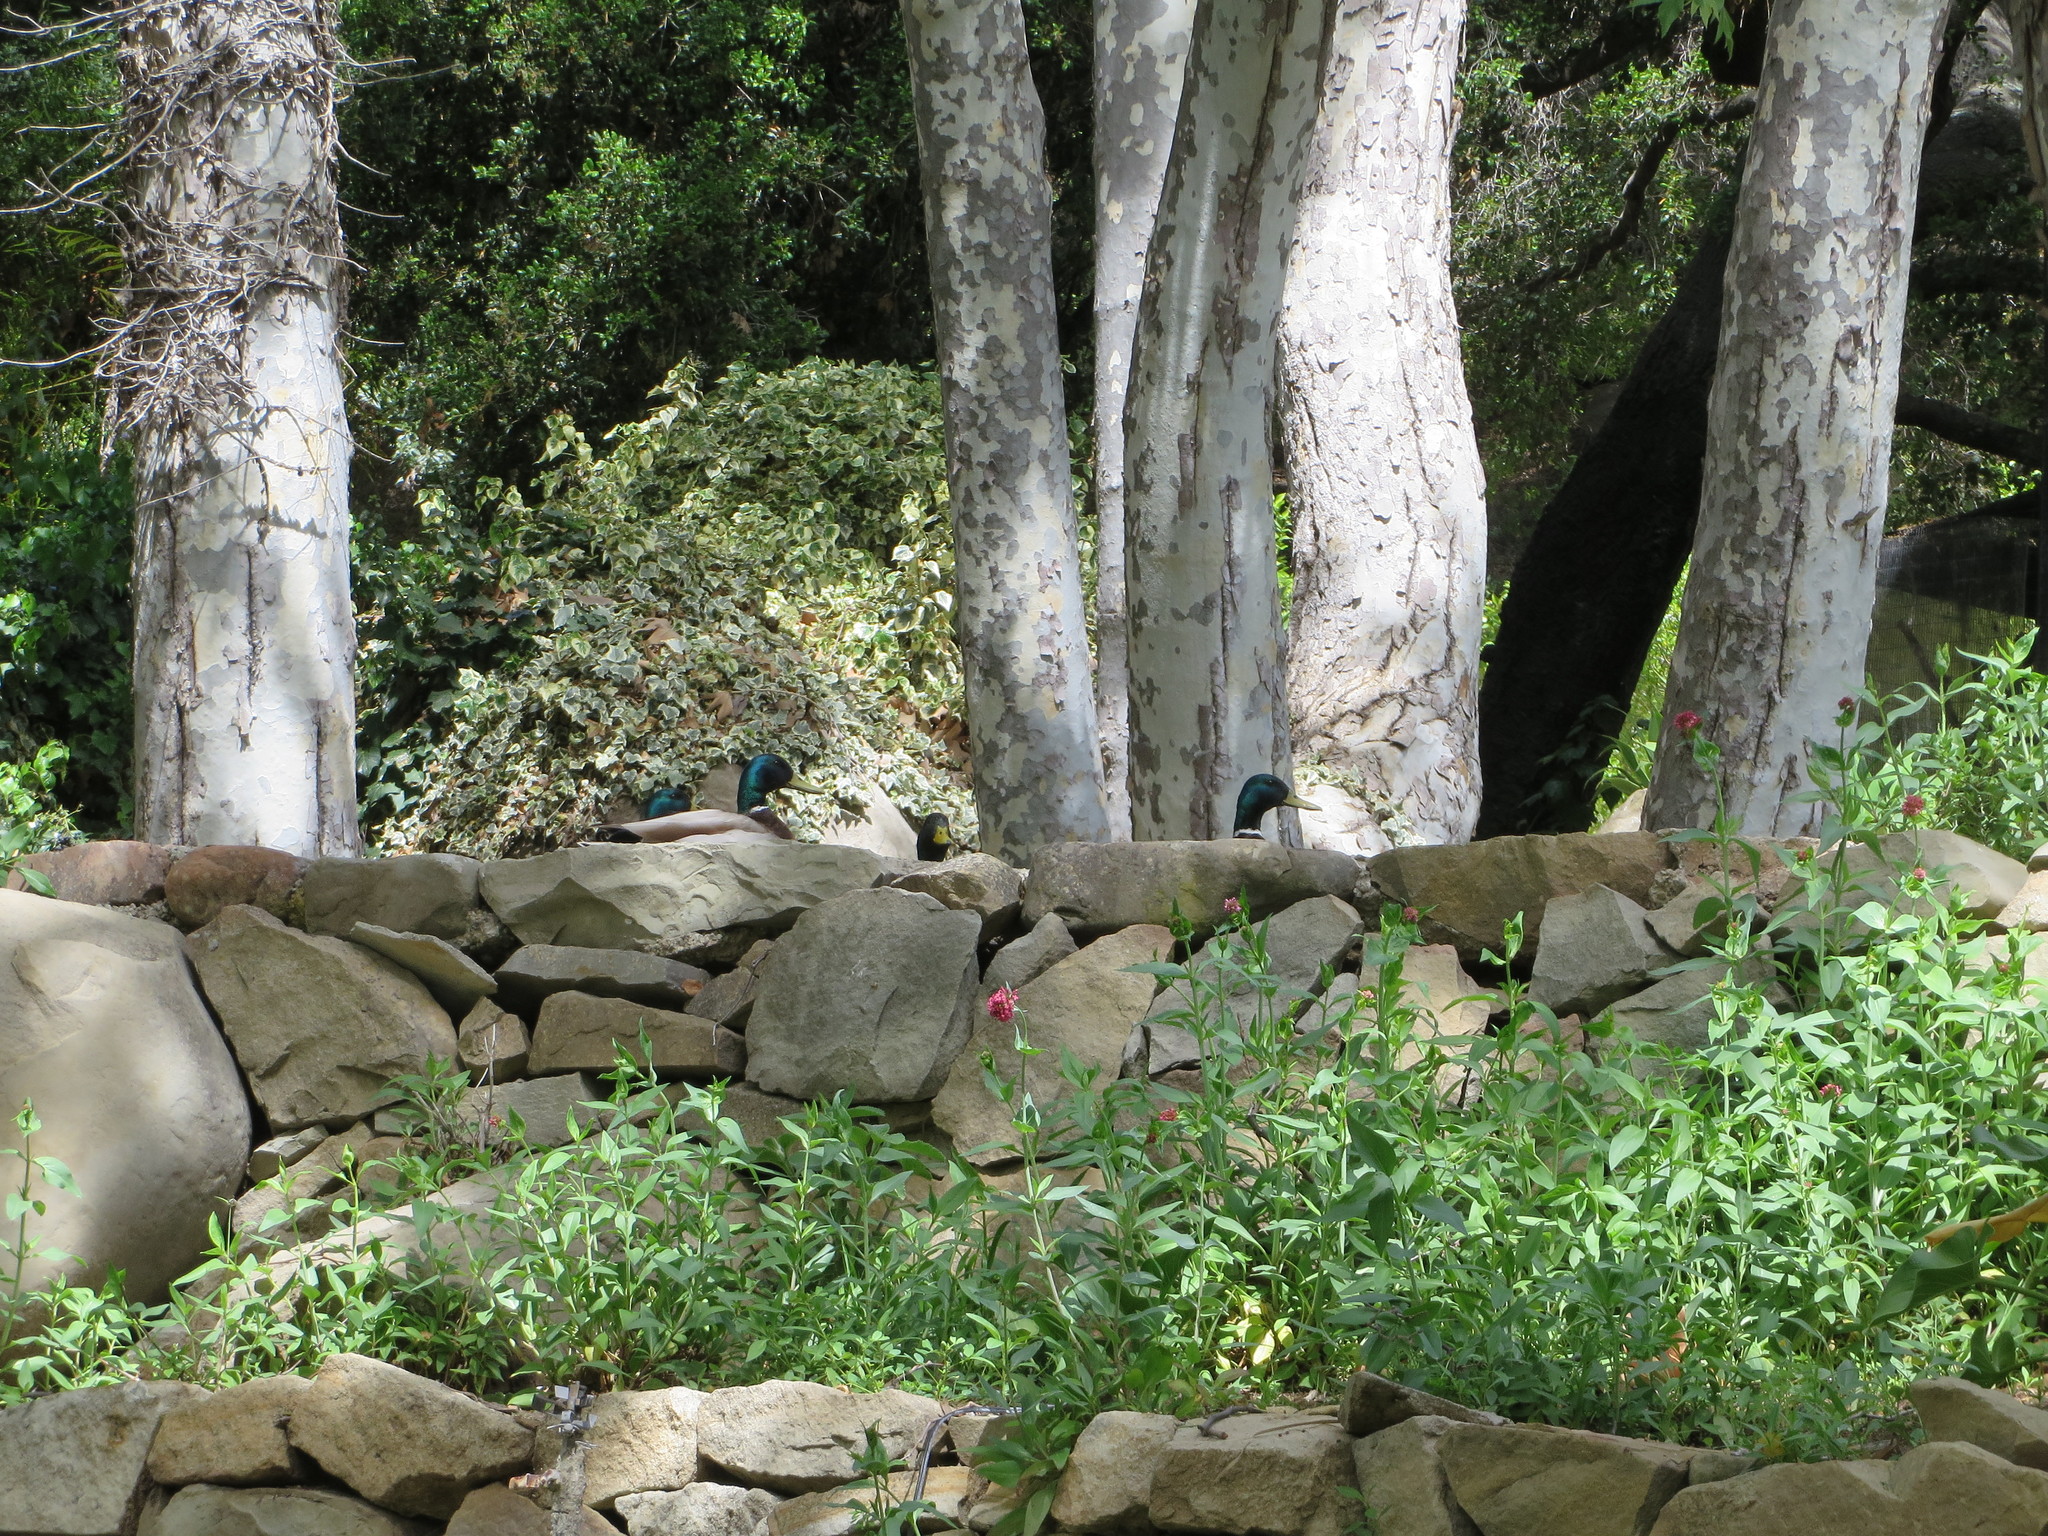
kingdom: Animalia
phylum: Chordata
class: Aves
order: Anseriformes
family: Anatidae
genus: Anas
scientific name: Anas platyrhynchos
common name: Mallard
